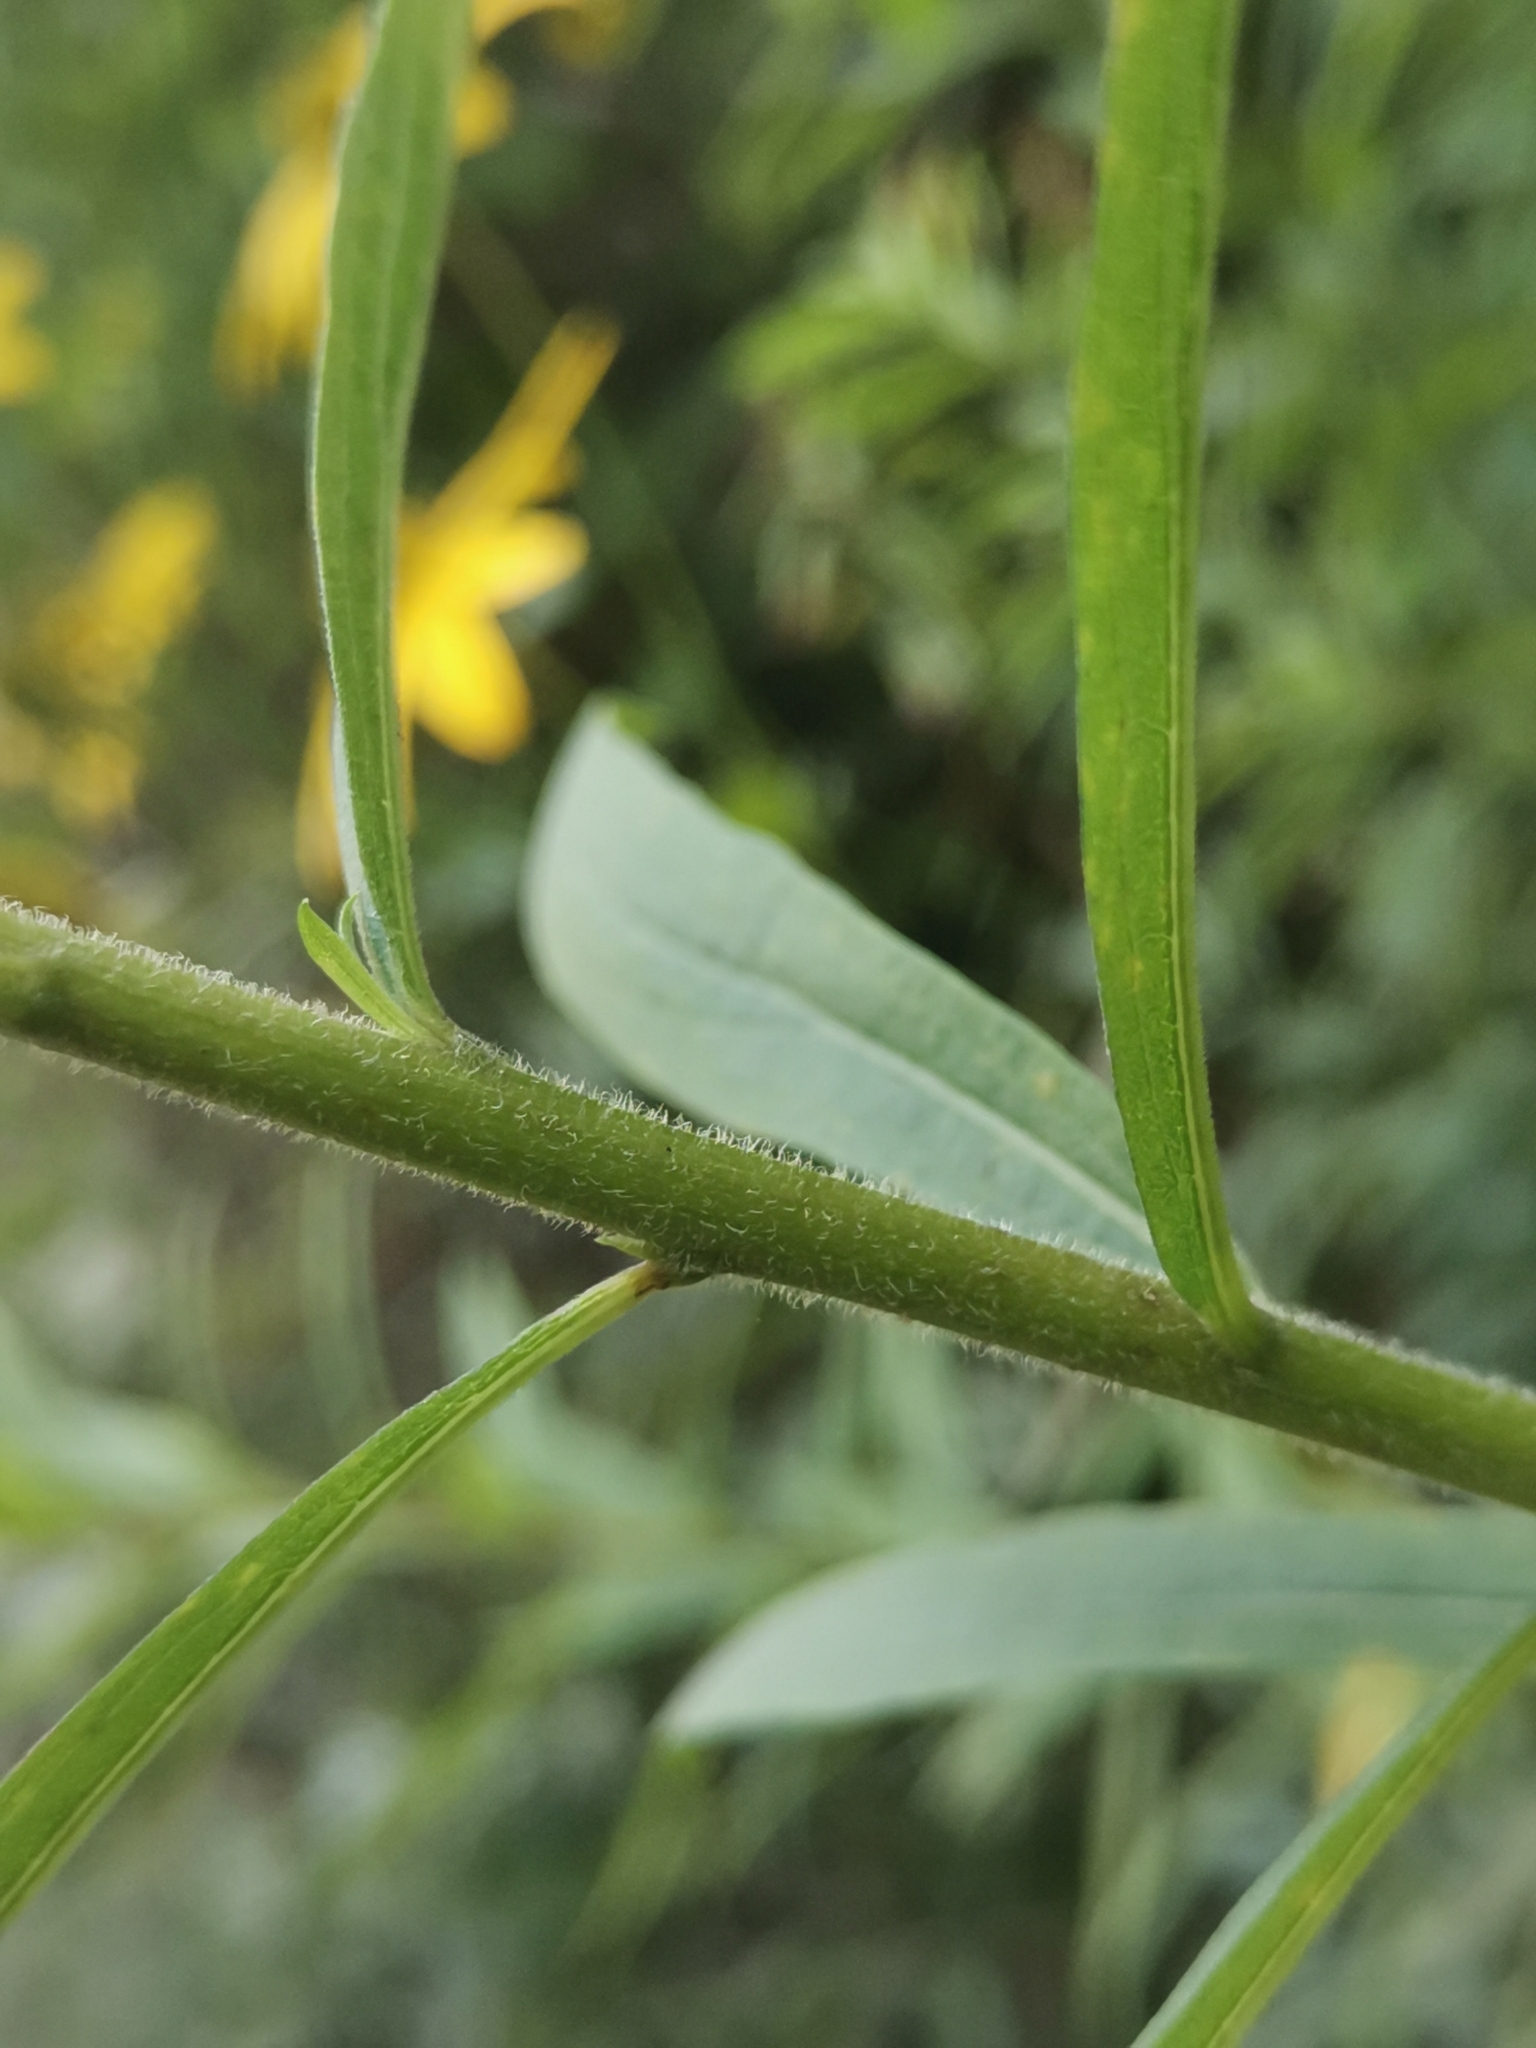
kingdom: Plantae
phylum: Tracheophyta
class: Magnoliopsida
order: Asterales
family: Asteraceae
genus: Solidago
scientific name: Solidago canadensis
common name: Canada goldenrod
